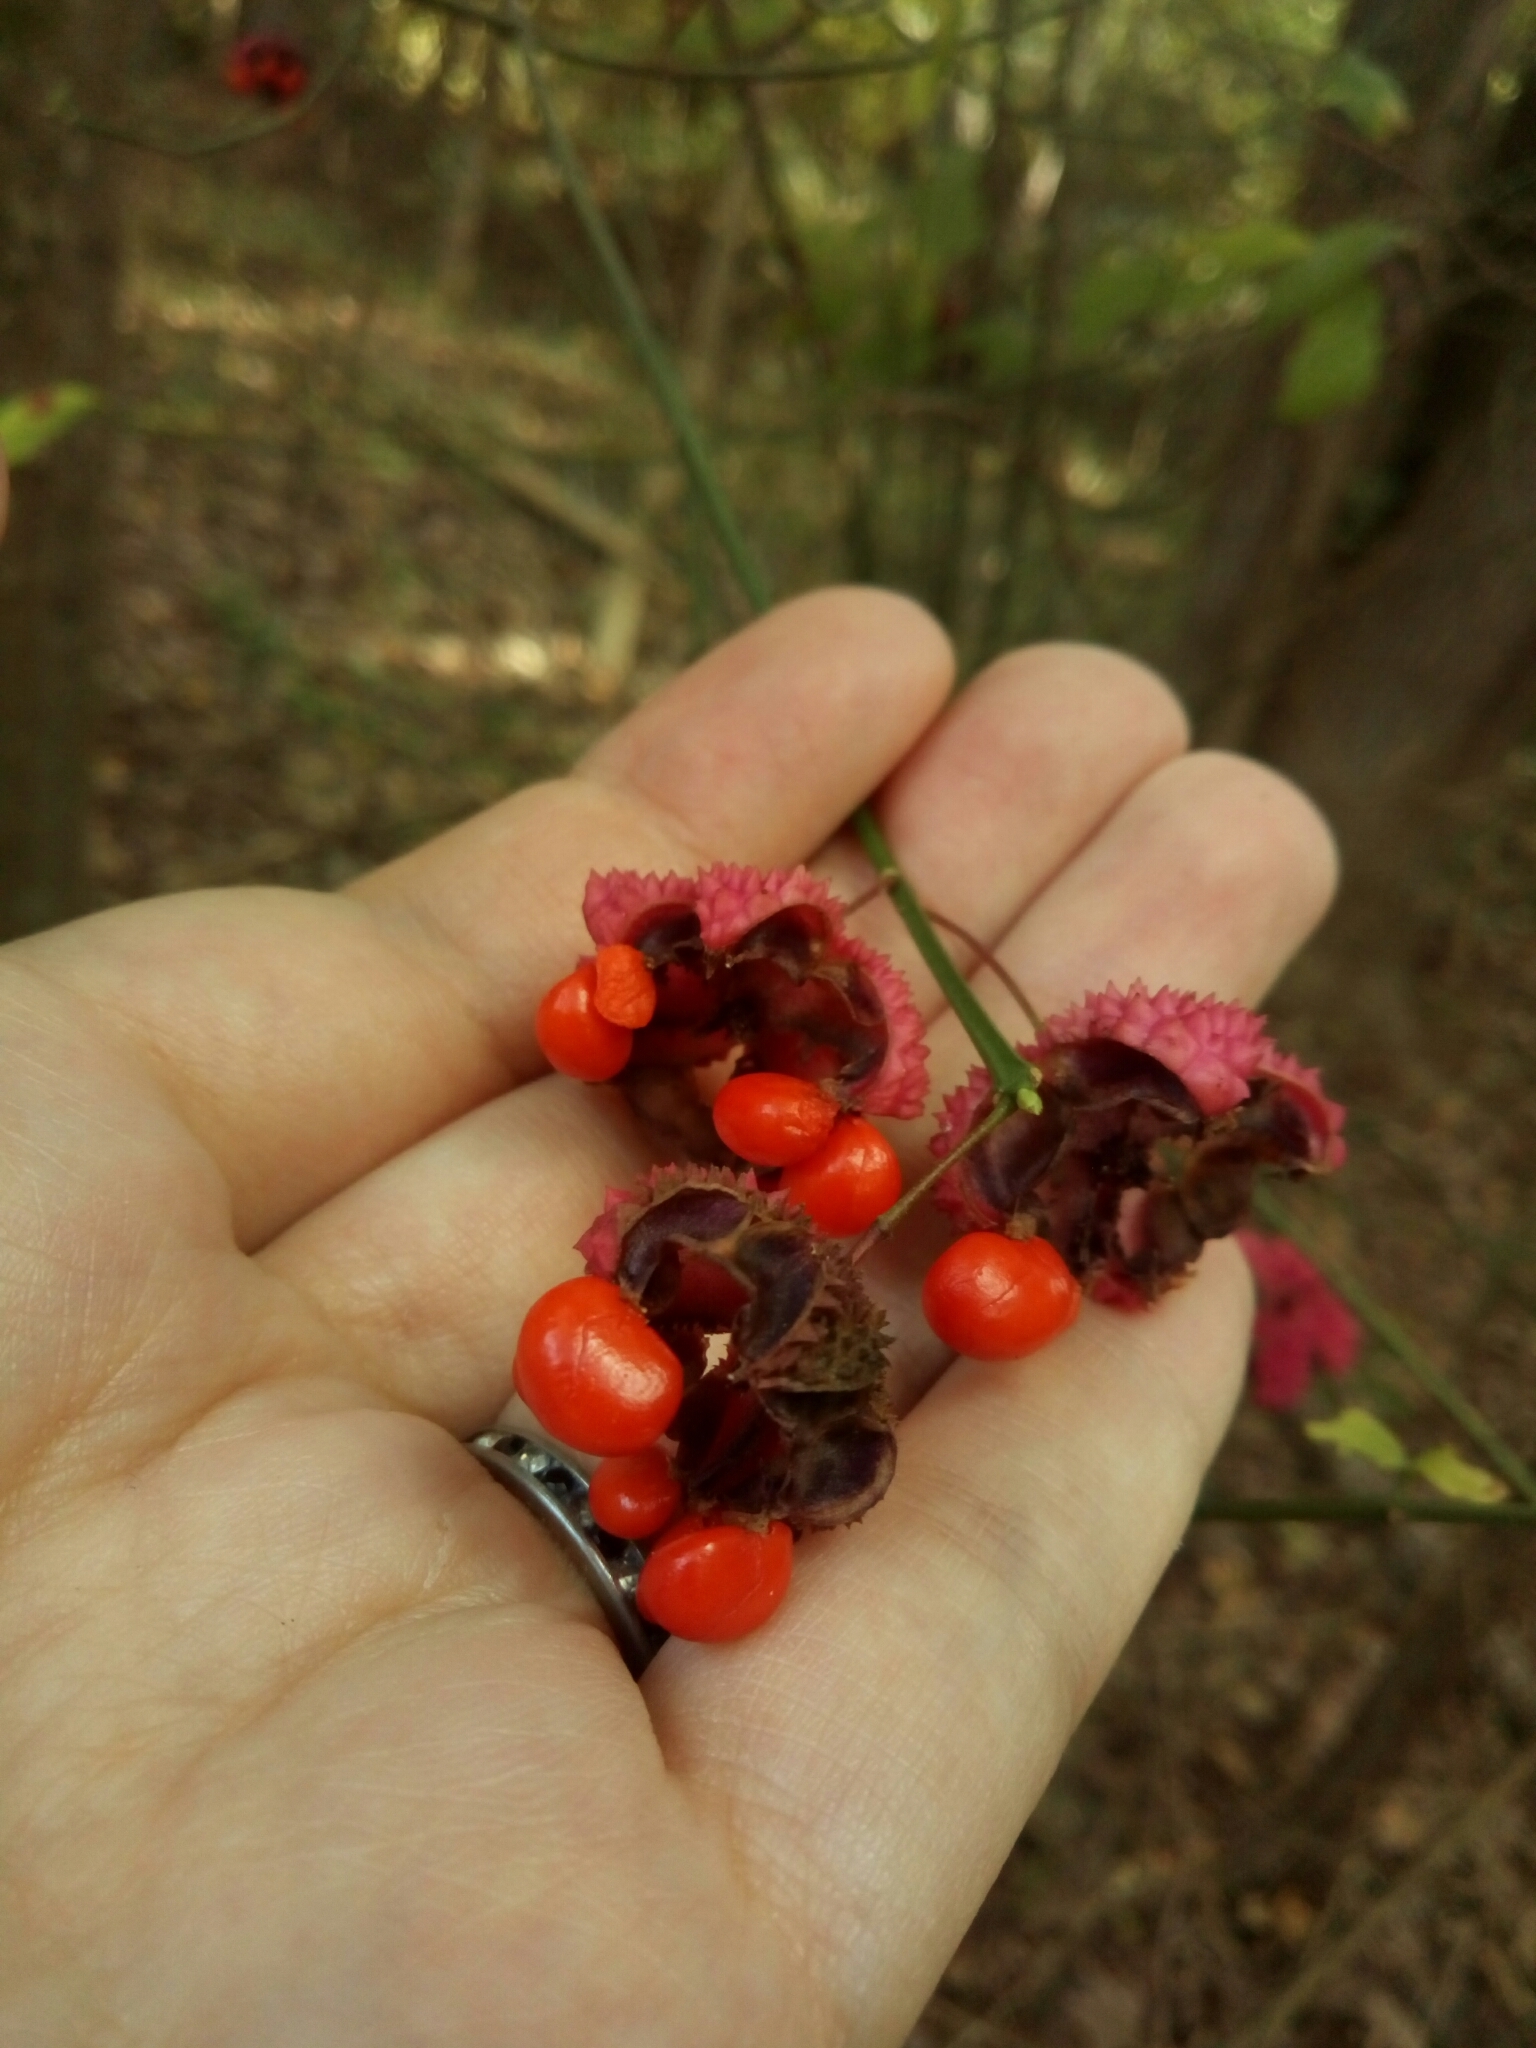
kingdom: Plantae
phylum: Tracheophyta
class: Magnoliopsida
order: Celastrales
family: Celastraceae
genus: Euonymus
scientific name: Euonymus americanus
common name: Bursting-heart
